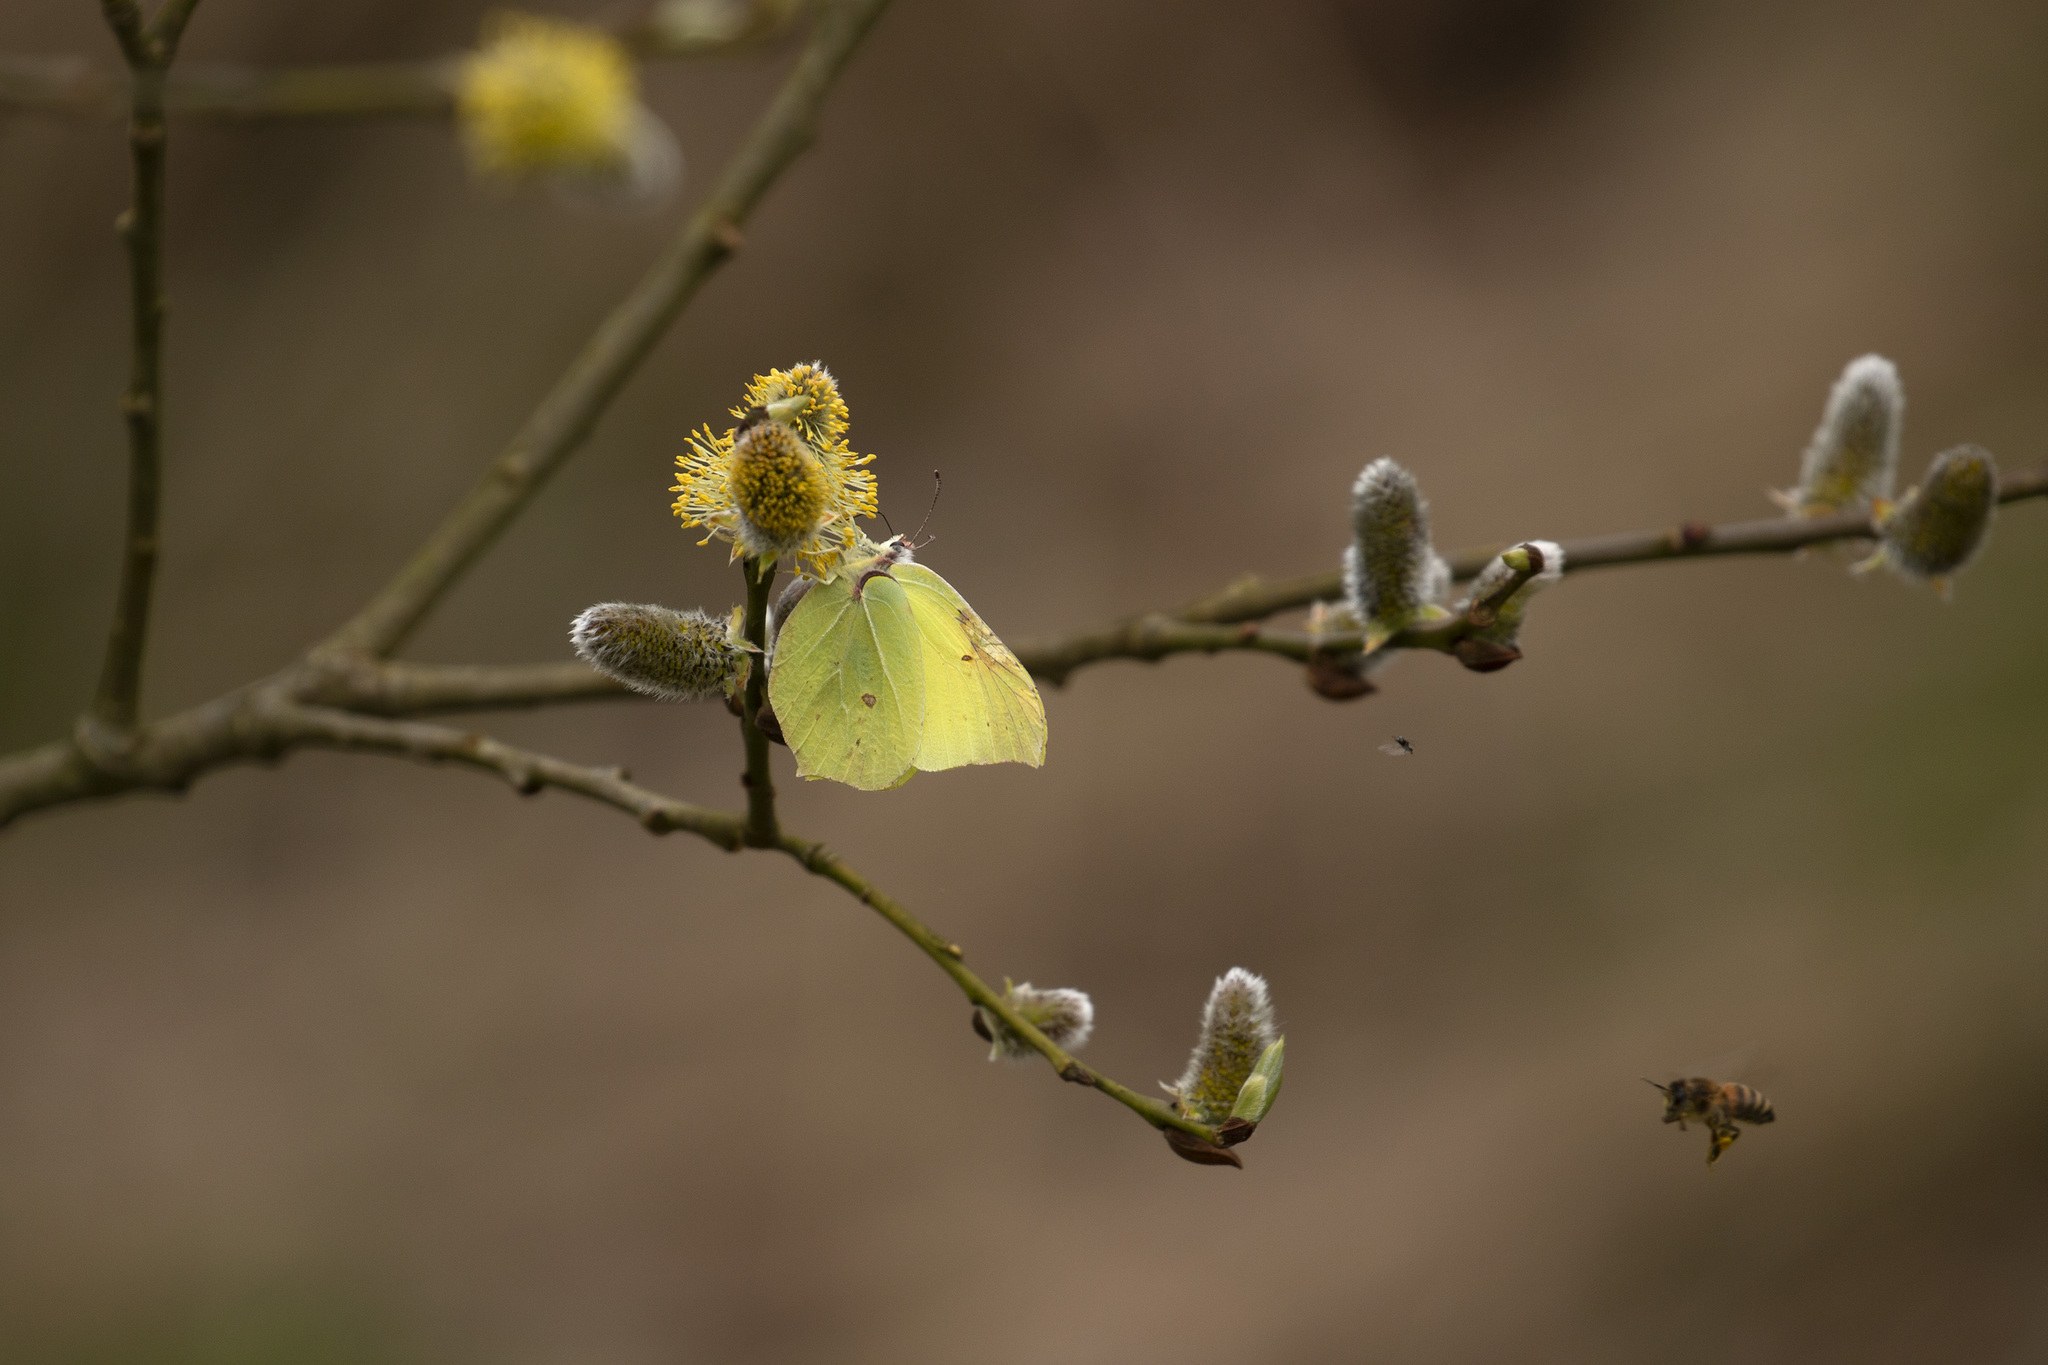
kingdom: Animalia
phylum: Arthropoda
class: Insecta
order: Lepidoptera
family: Pieridae
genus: Gonepteryx
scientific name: Gonepteryx rhamni
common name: Brimstone
